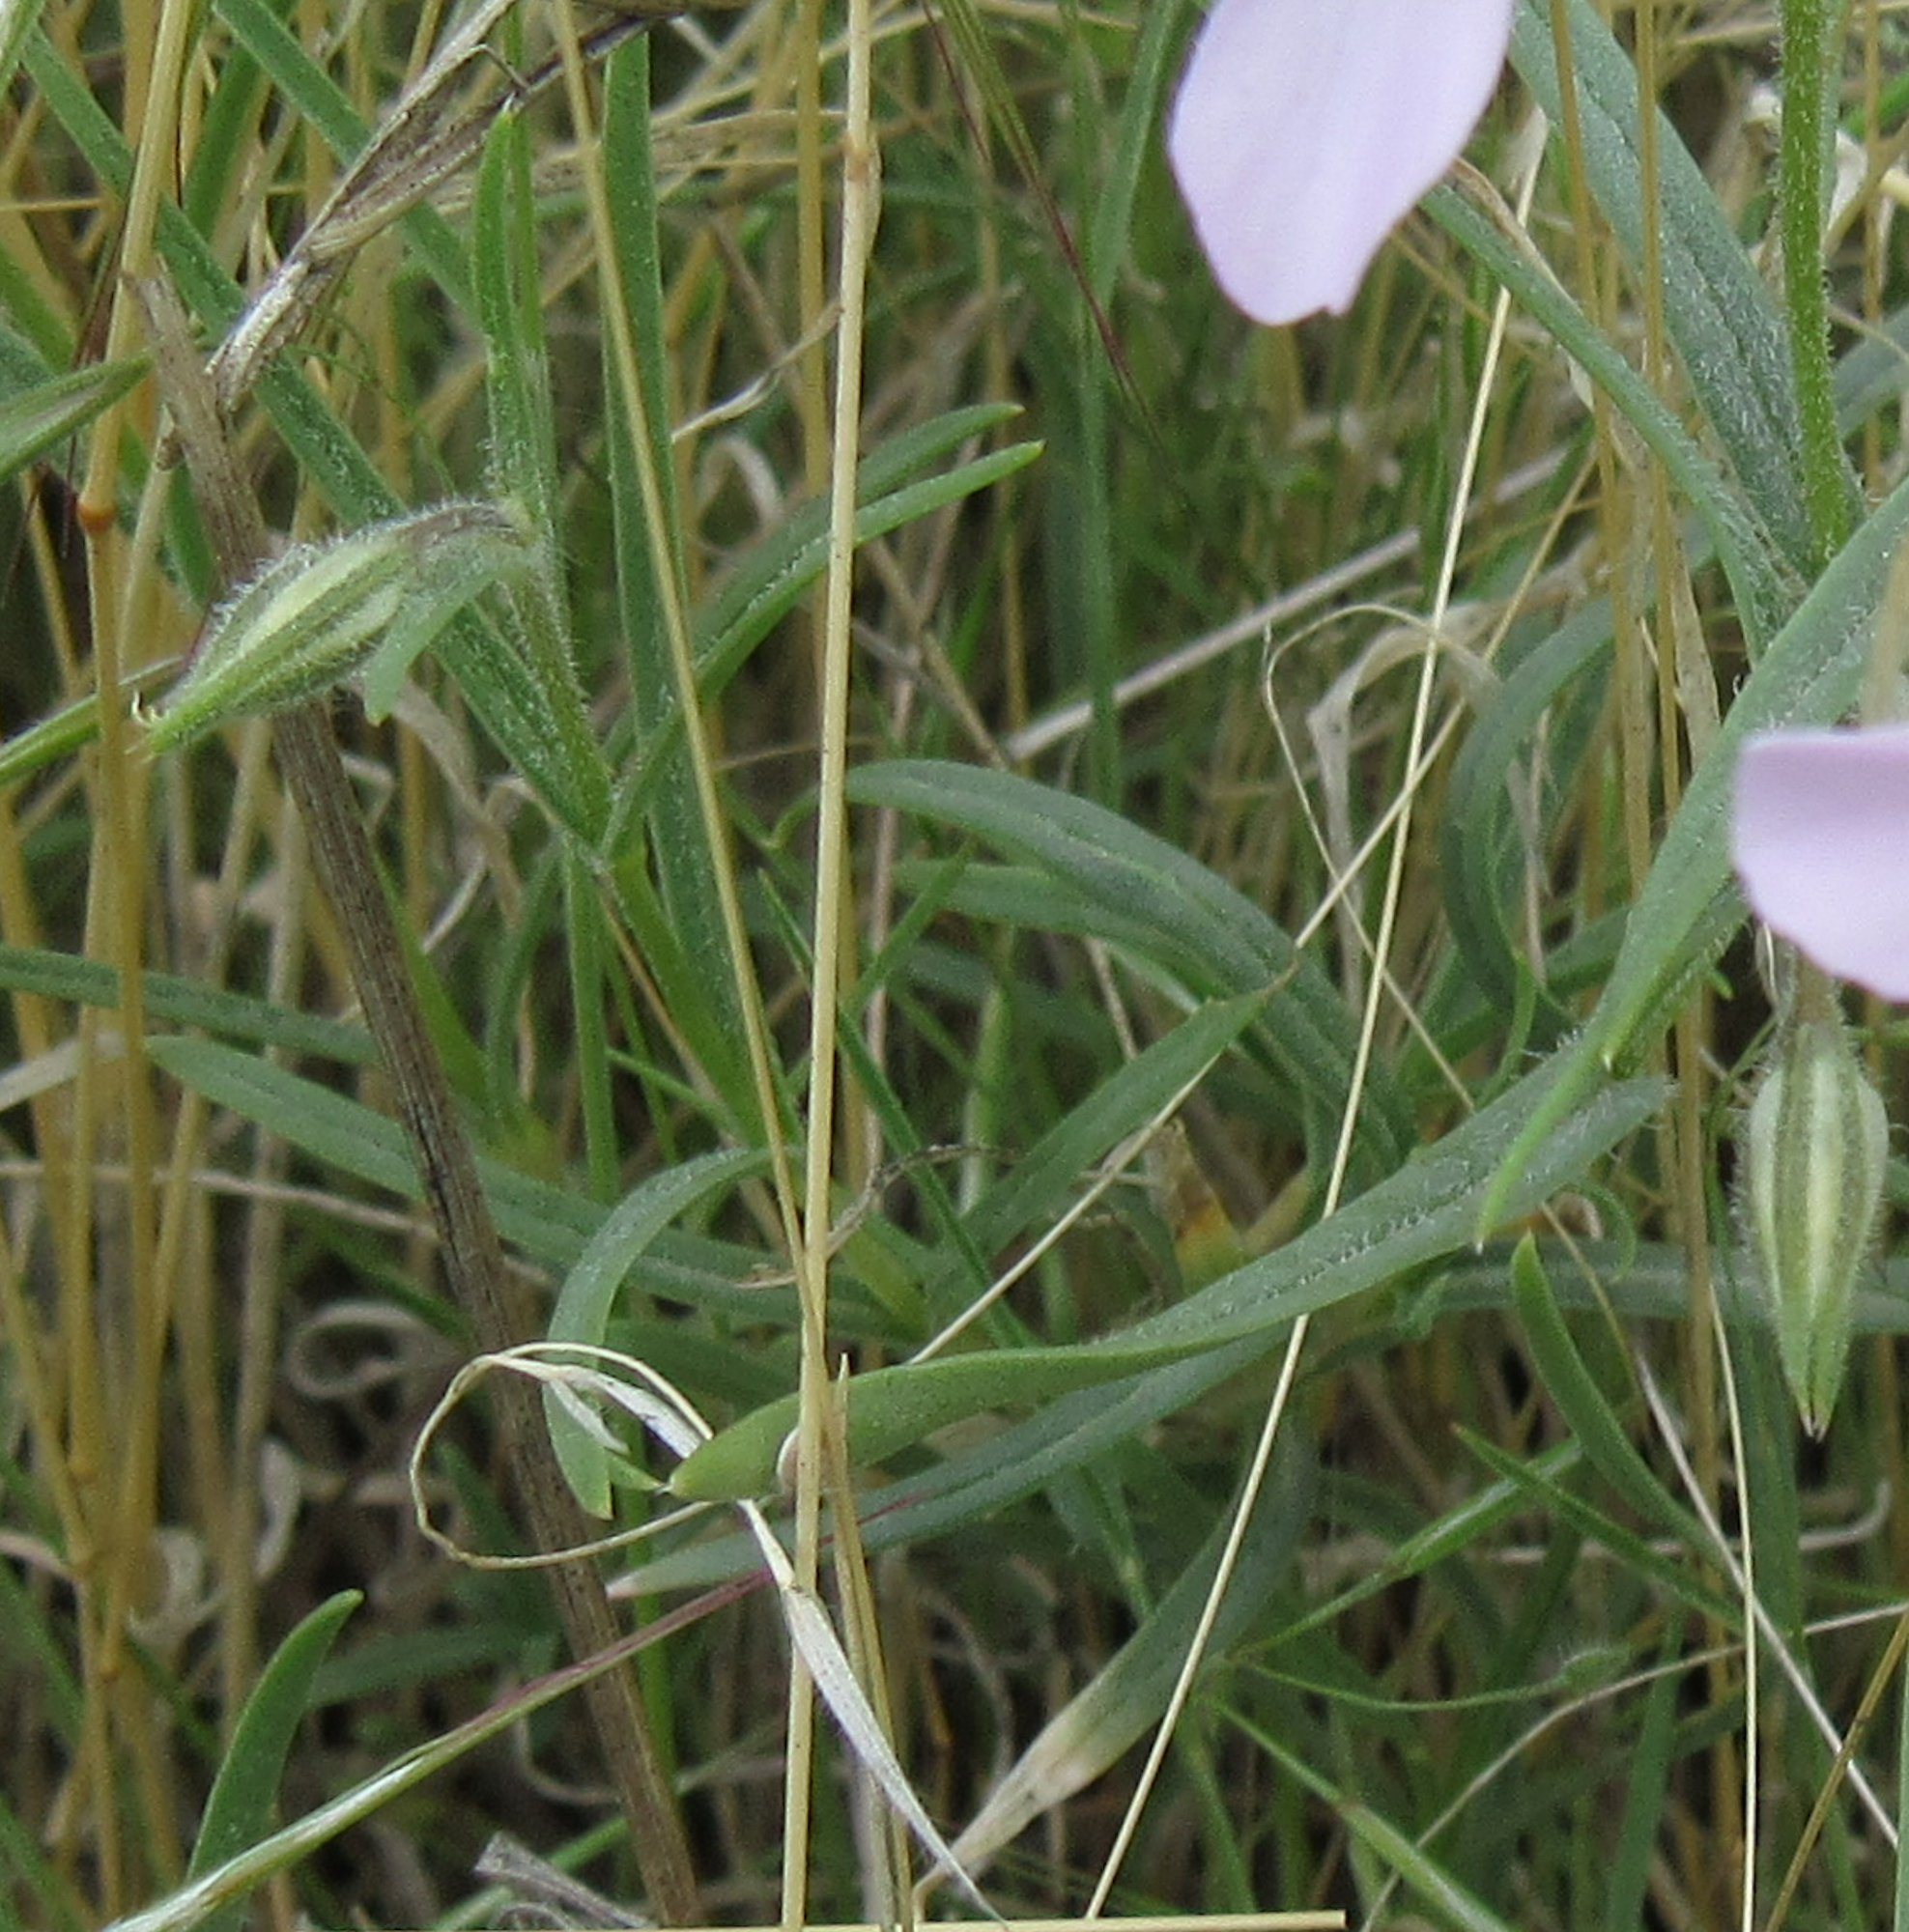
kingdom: Plantae
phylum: Tracheophyta
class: Magnoliopsida
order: Ericales
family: Polemoniaceae
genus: Phlox
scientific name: Phlox longifolia
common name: Longleaf phlox
